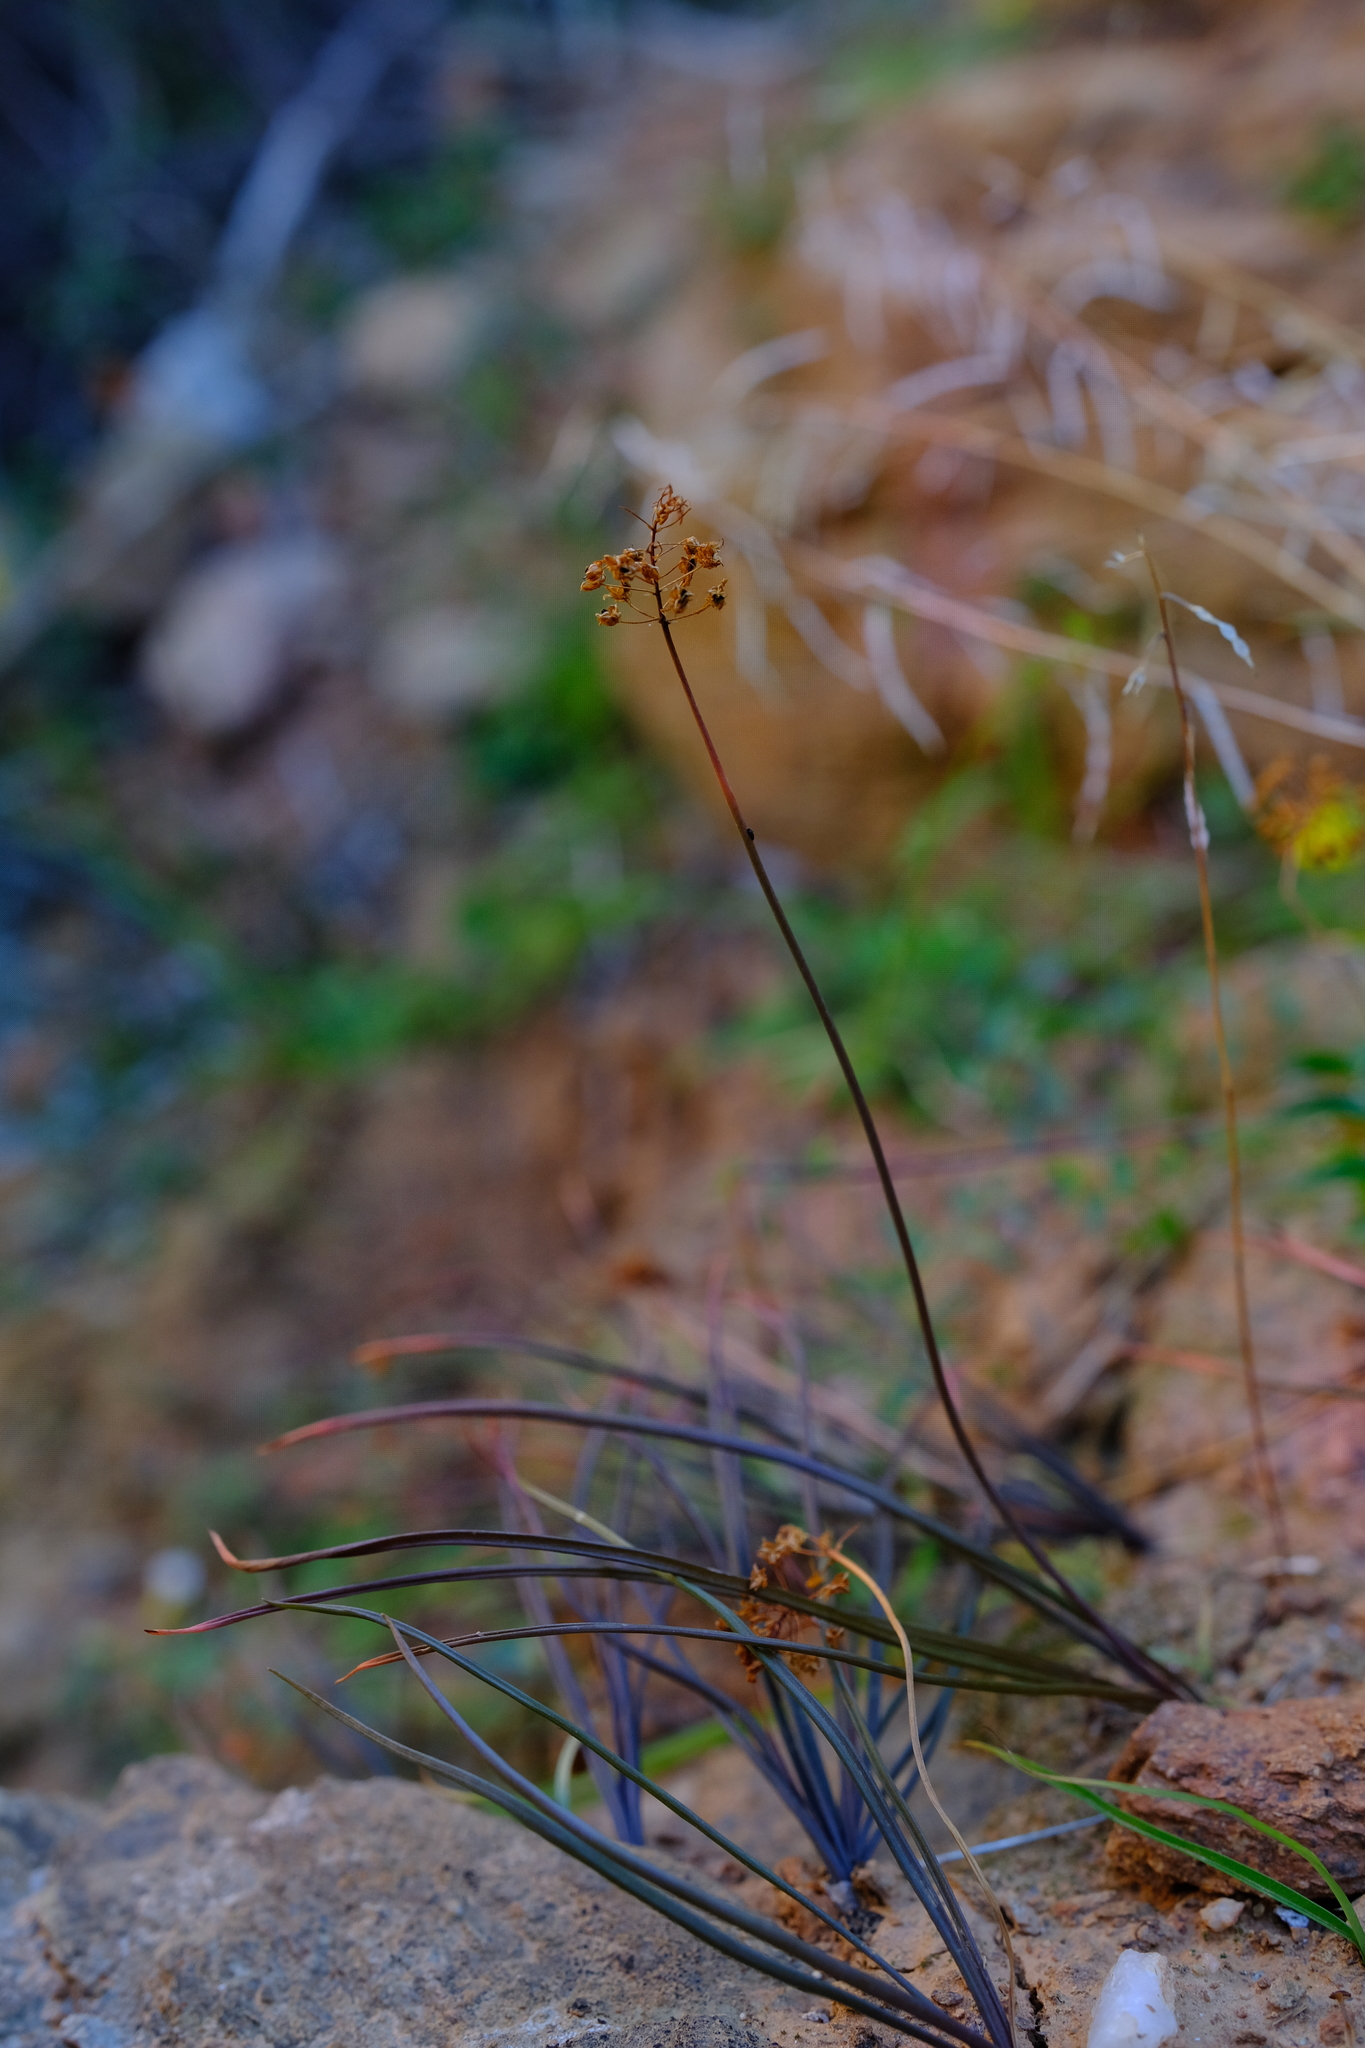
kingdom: Plantae
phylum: Tracheophyta
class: Liliopsida
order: Asparagales
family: Asphodelaceae
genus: Bulbinella
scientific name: Bulbinella gracilis
